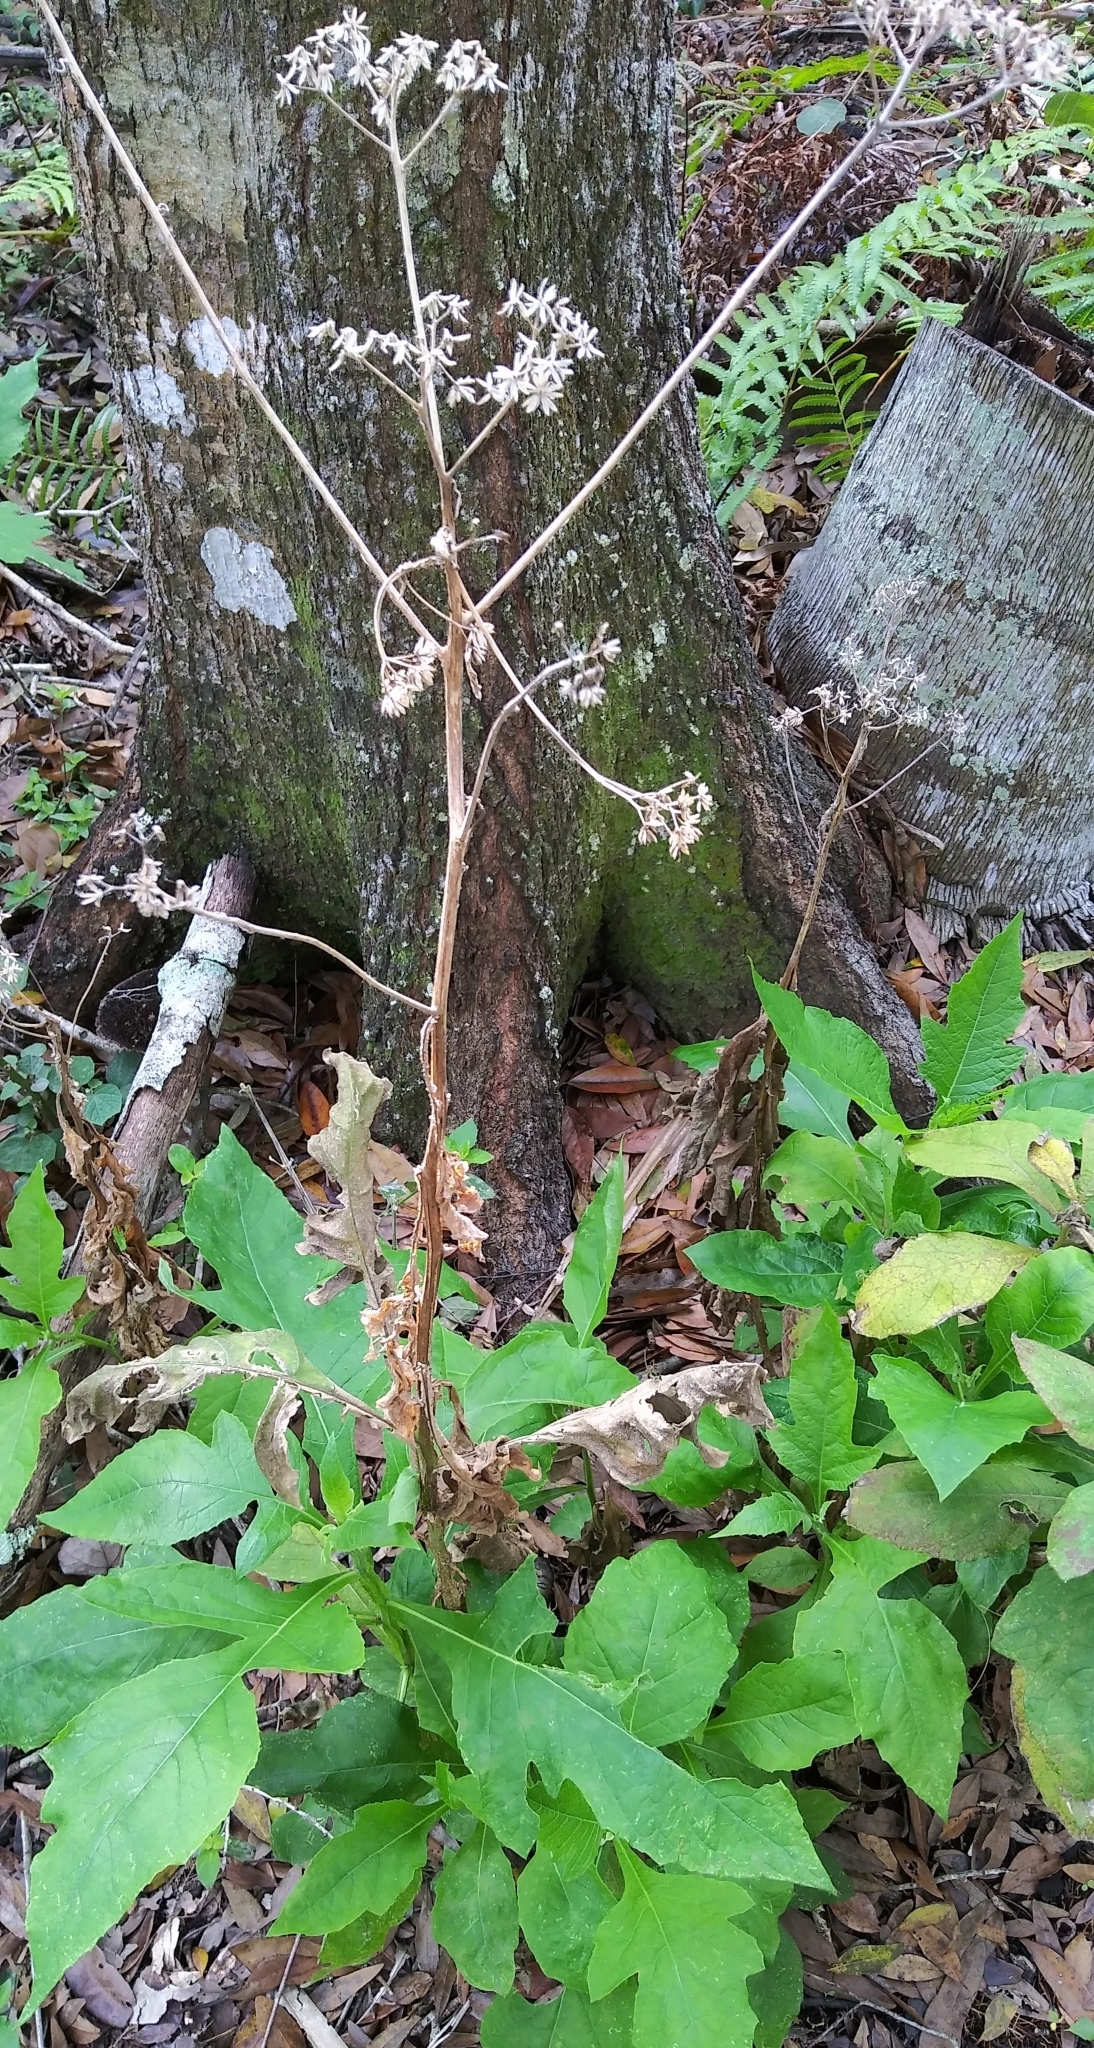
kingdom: Plantae
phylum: Tracheophyta
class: Magnoliopsida
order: Asterales
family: Asteraceae
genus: Verbesina
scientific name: Verbesina virginica
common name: Frostweed
